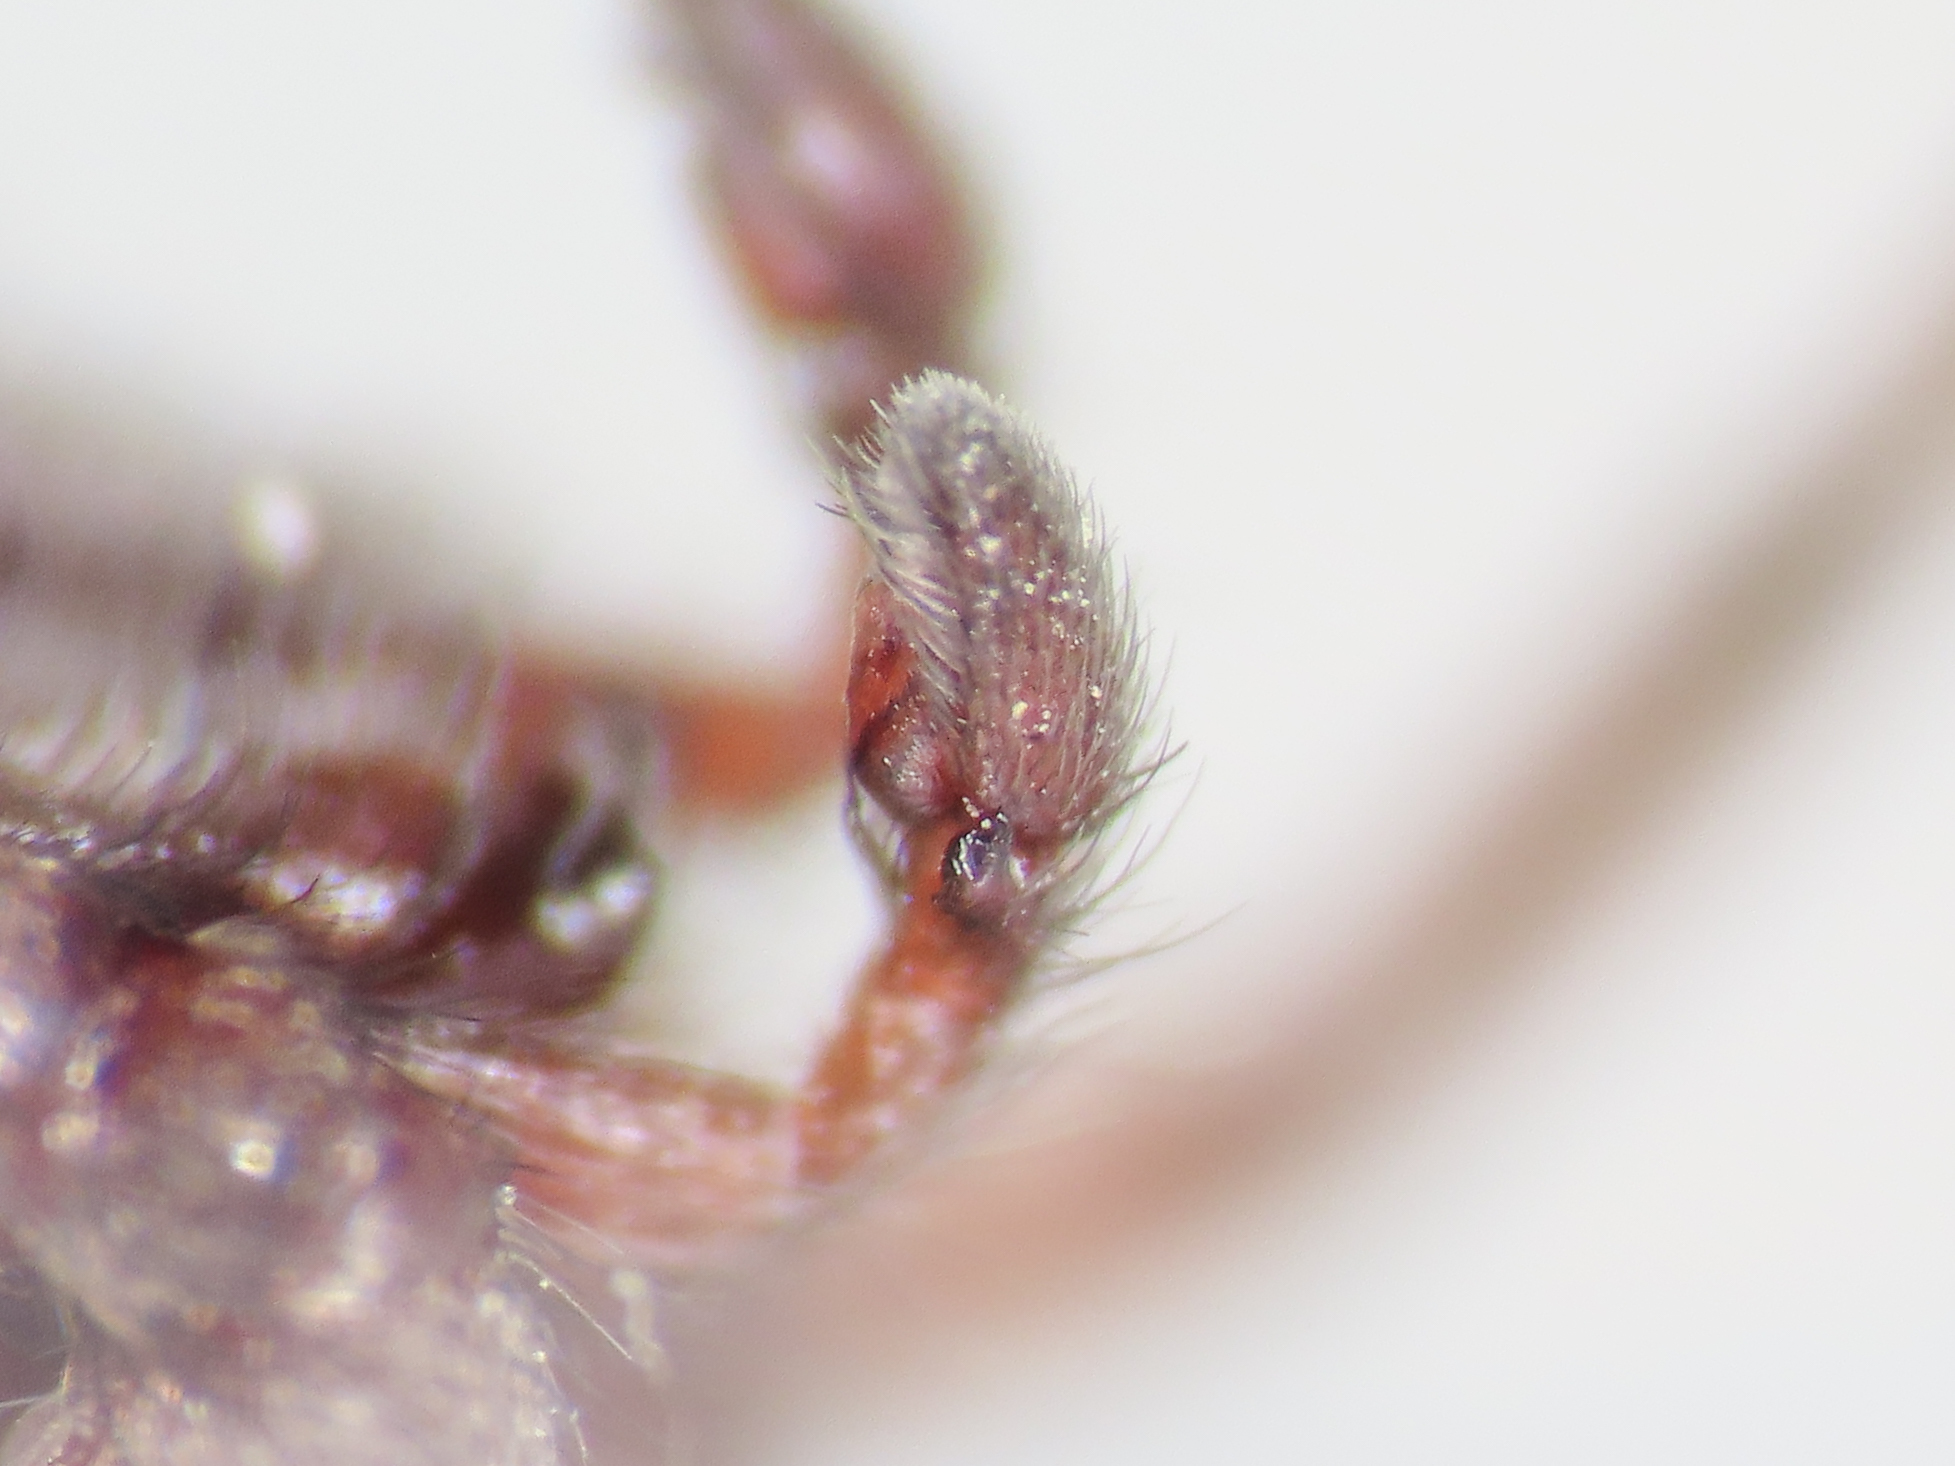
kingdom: Animalia
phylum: Arthropoda
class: Arachnida
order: Araneae
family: Gnaphosidae
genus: Scotophaeus
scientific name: Scotophaeus scutulatus
